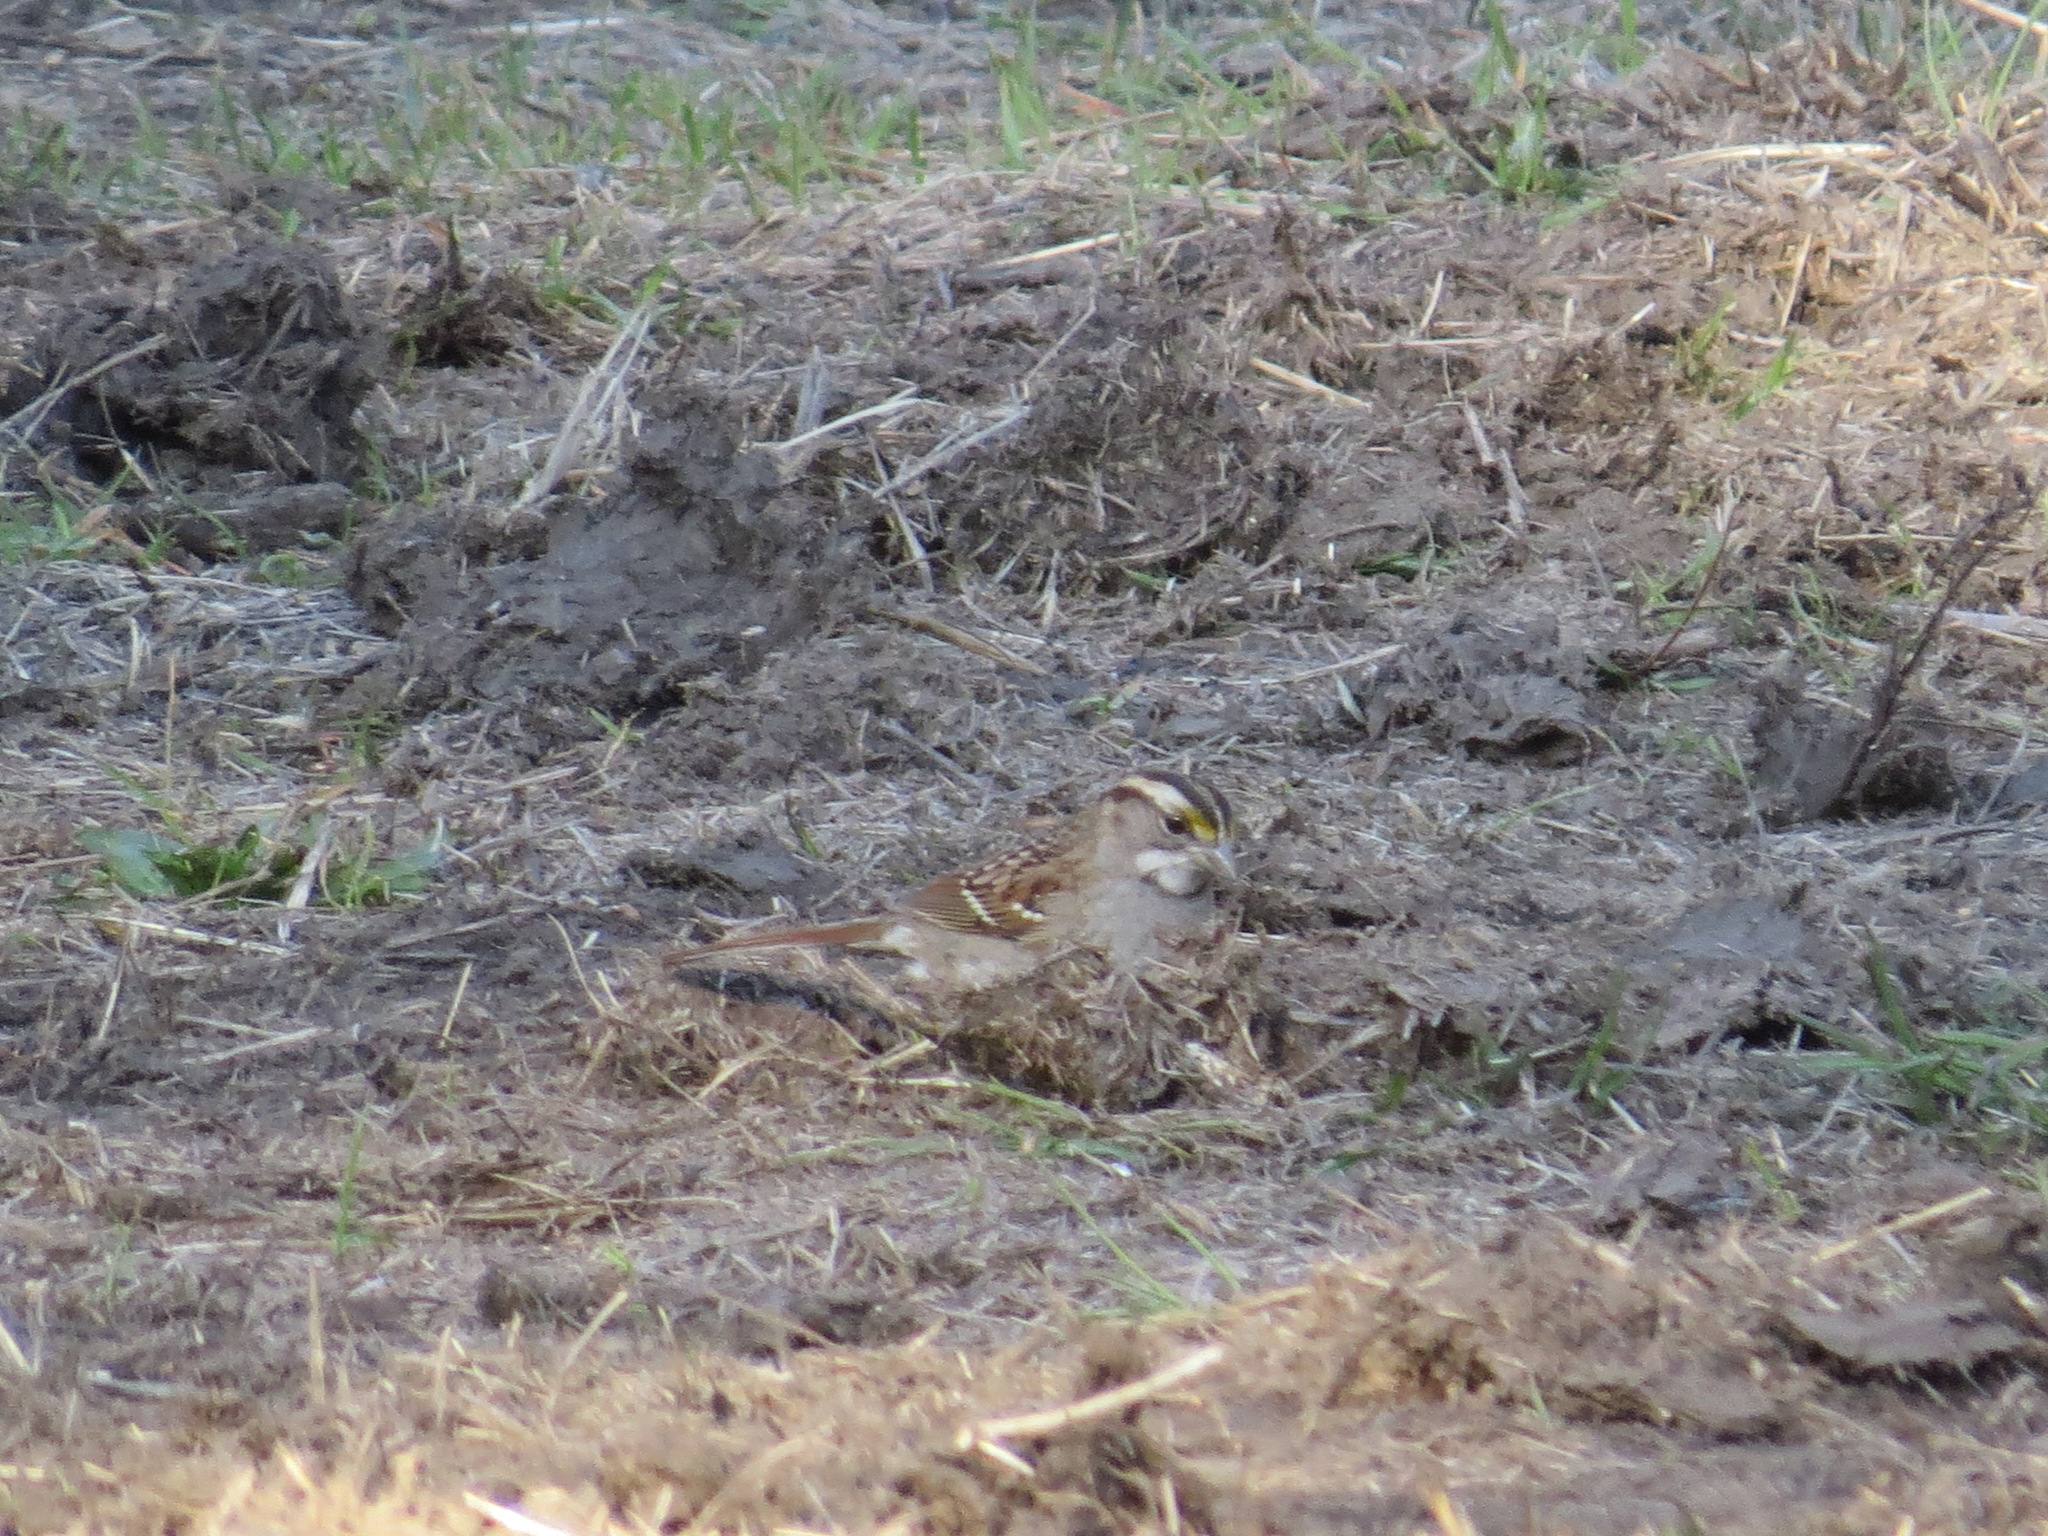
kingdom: Animalia
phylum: Chordata
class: Aves
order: Passeriformes
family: Passerellidae
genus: Zonotrichia
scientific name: Zonotrichia albicollis
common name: White-throated sparrow
